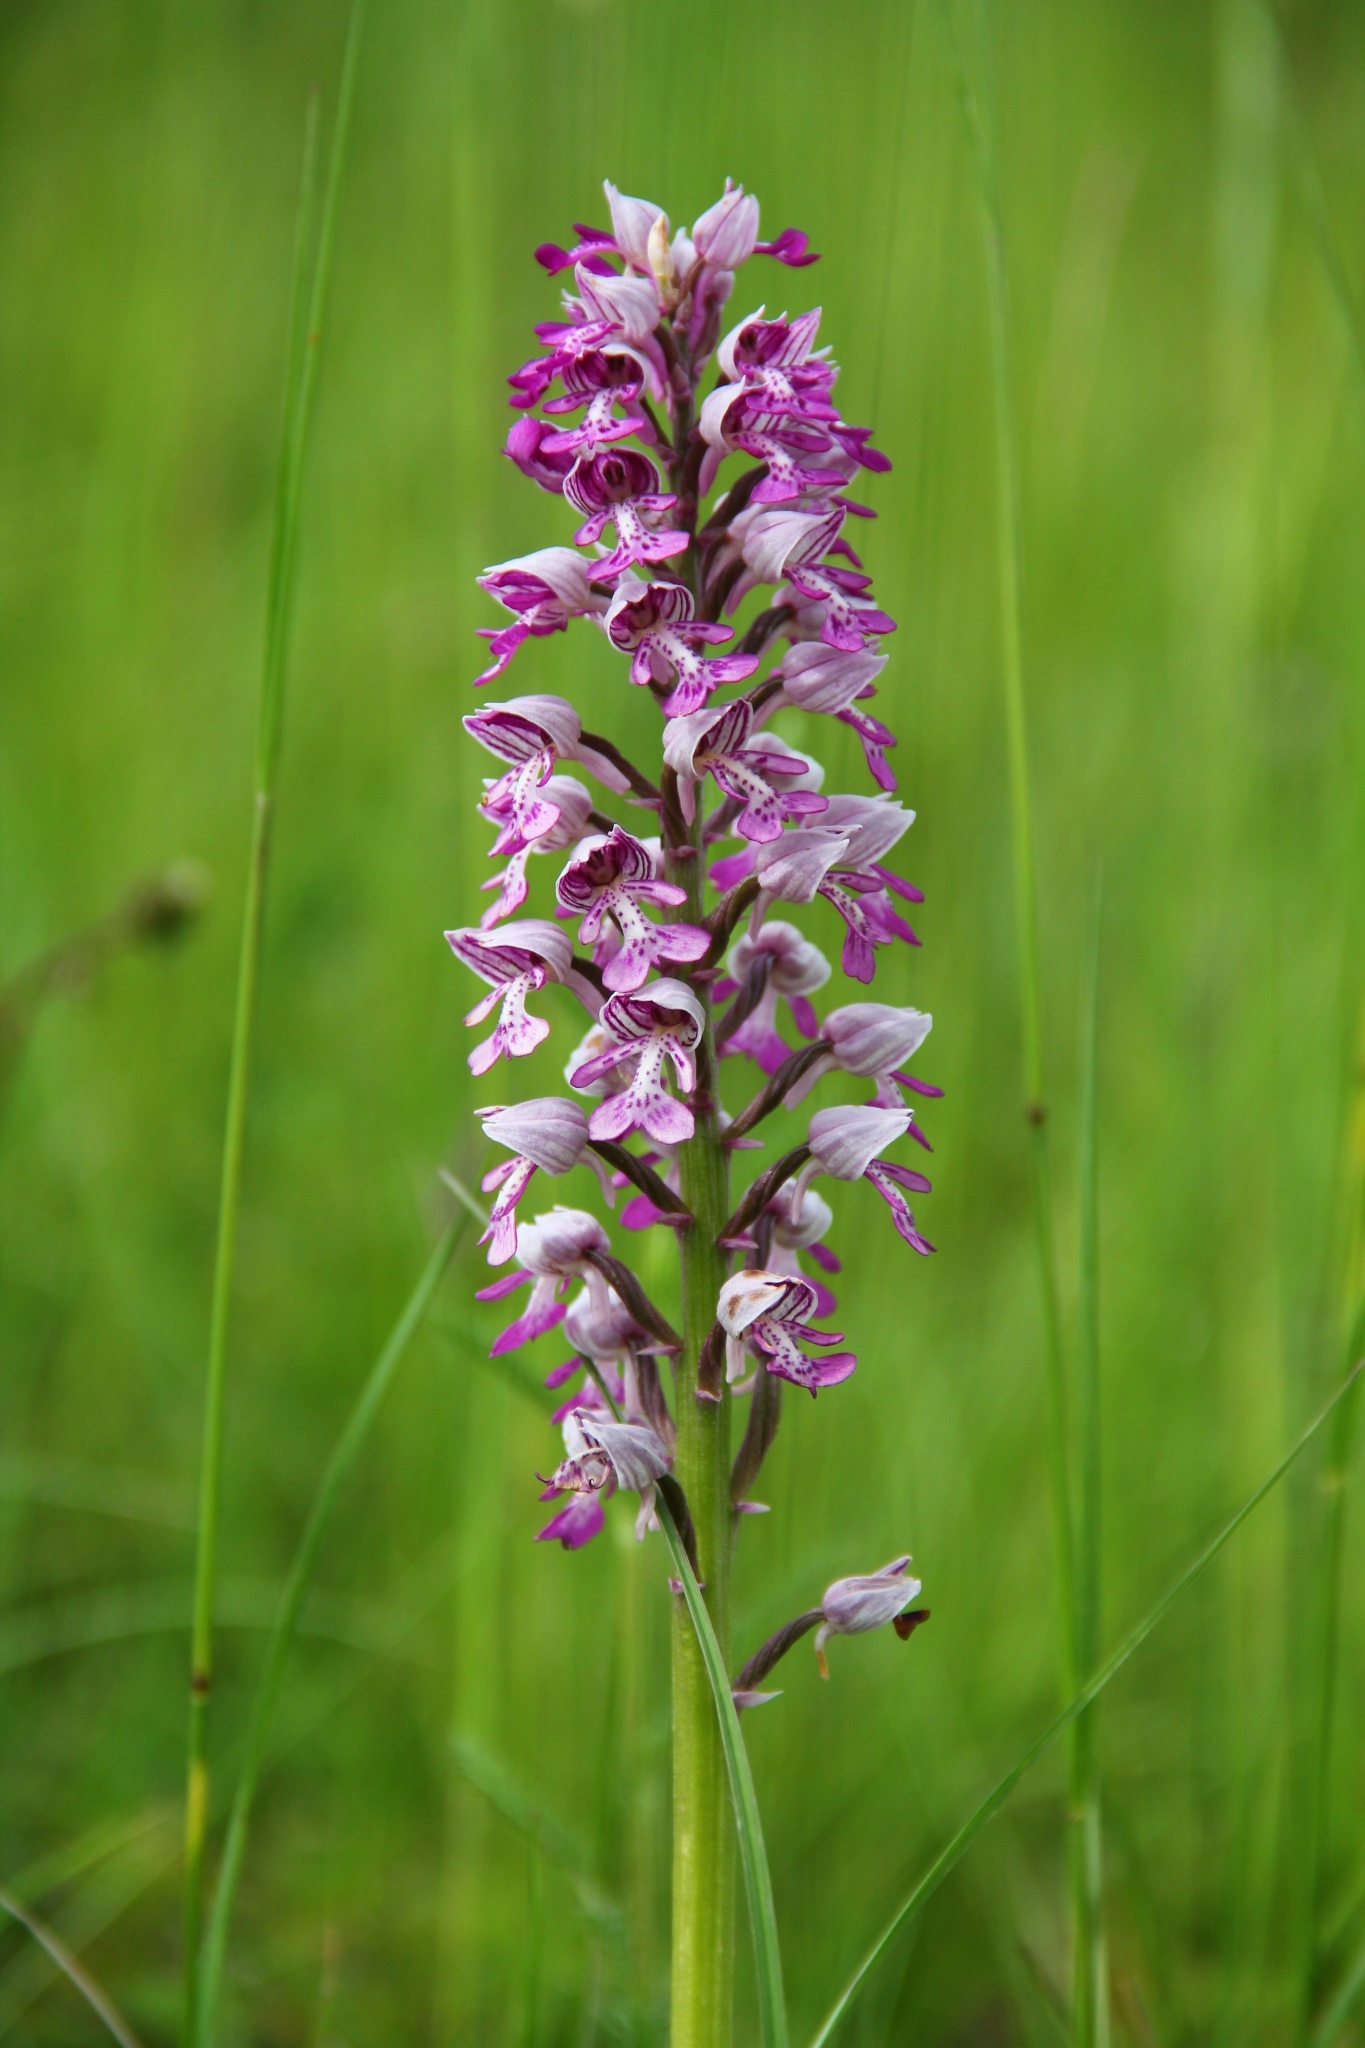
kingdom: Plantae
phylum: Tracheophyta
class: Liliopsida
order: Asparagales
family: Orchidaceae
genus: Orchis
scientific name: Orchis militaris
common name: Military orchid
